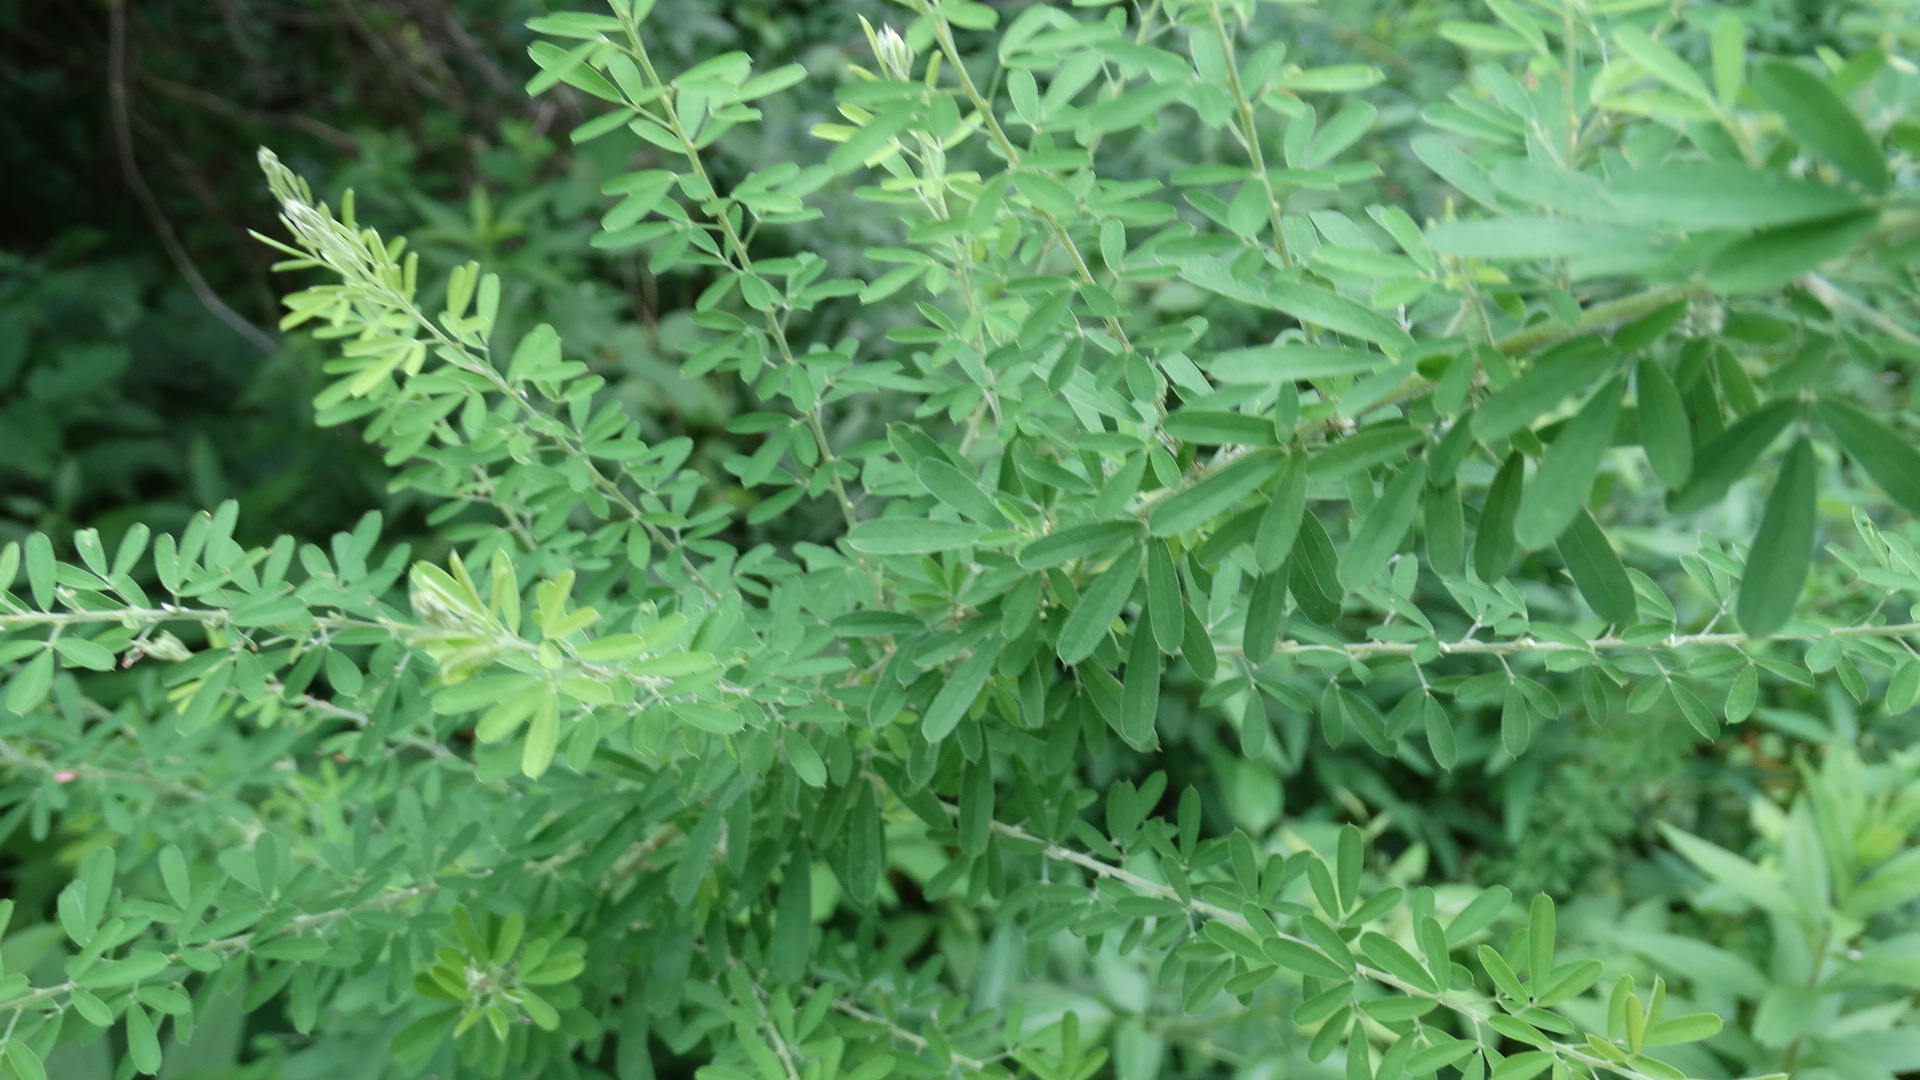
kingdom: Plantae
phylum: Tracheophyta
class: Magnoliopsida
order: Fabales
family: Fabaceae
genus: Lespedeza
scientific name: Lespedeza cuneata
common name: Chinese bush-clover
